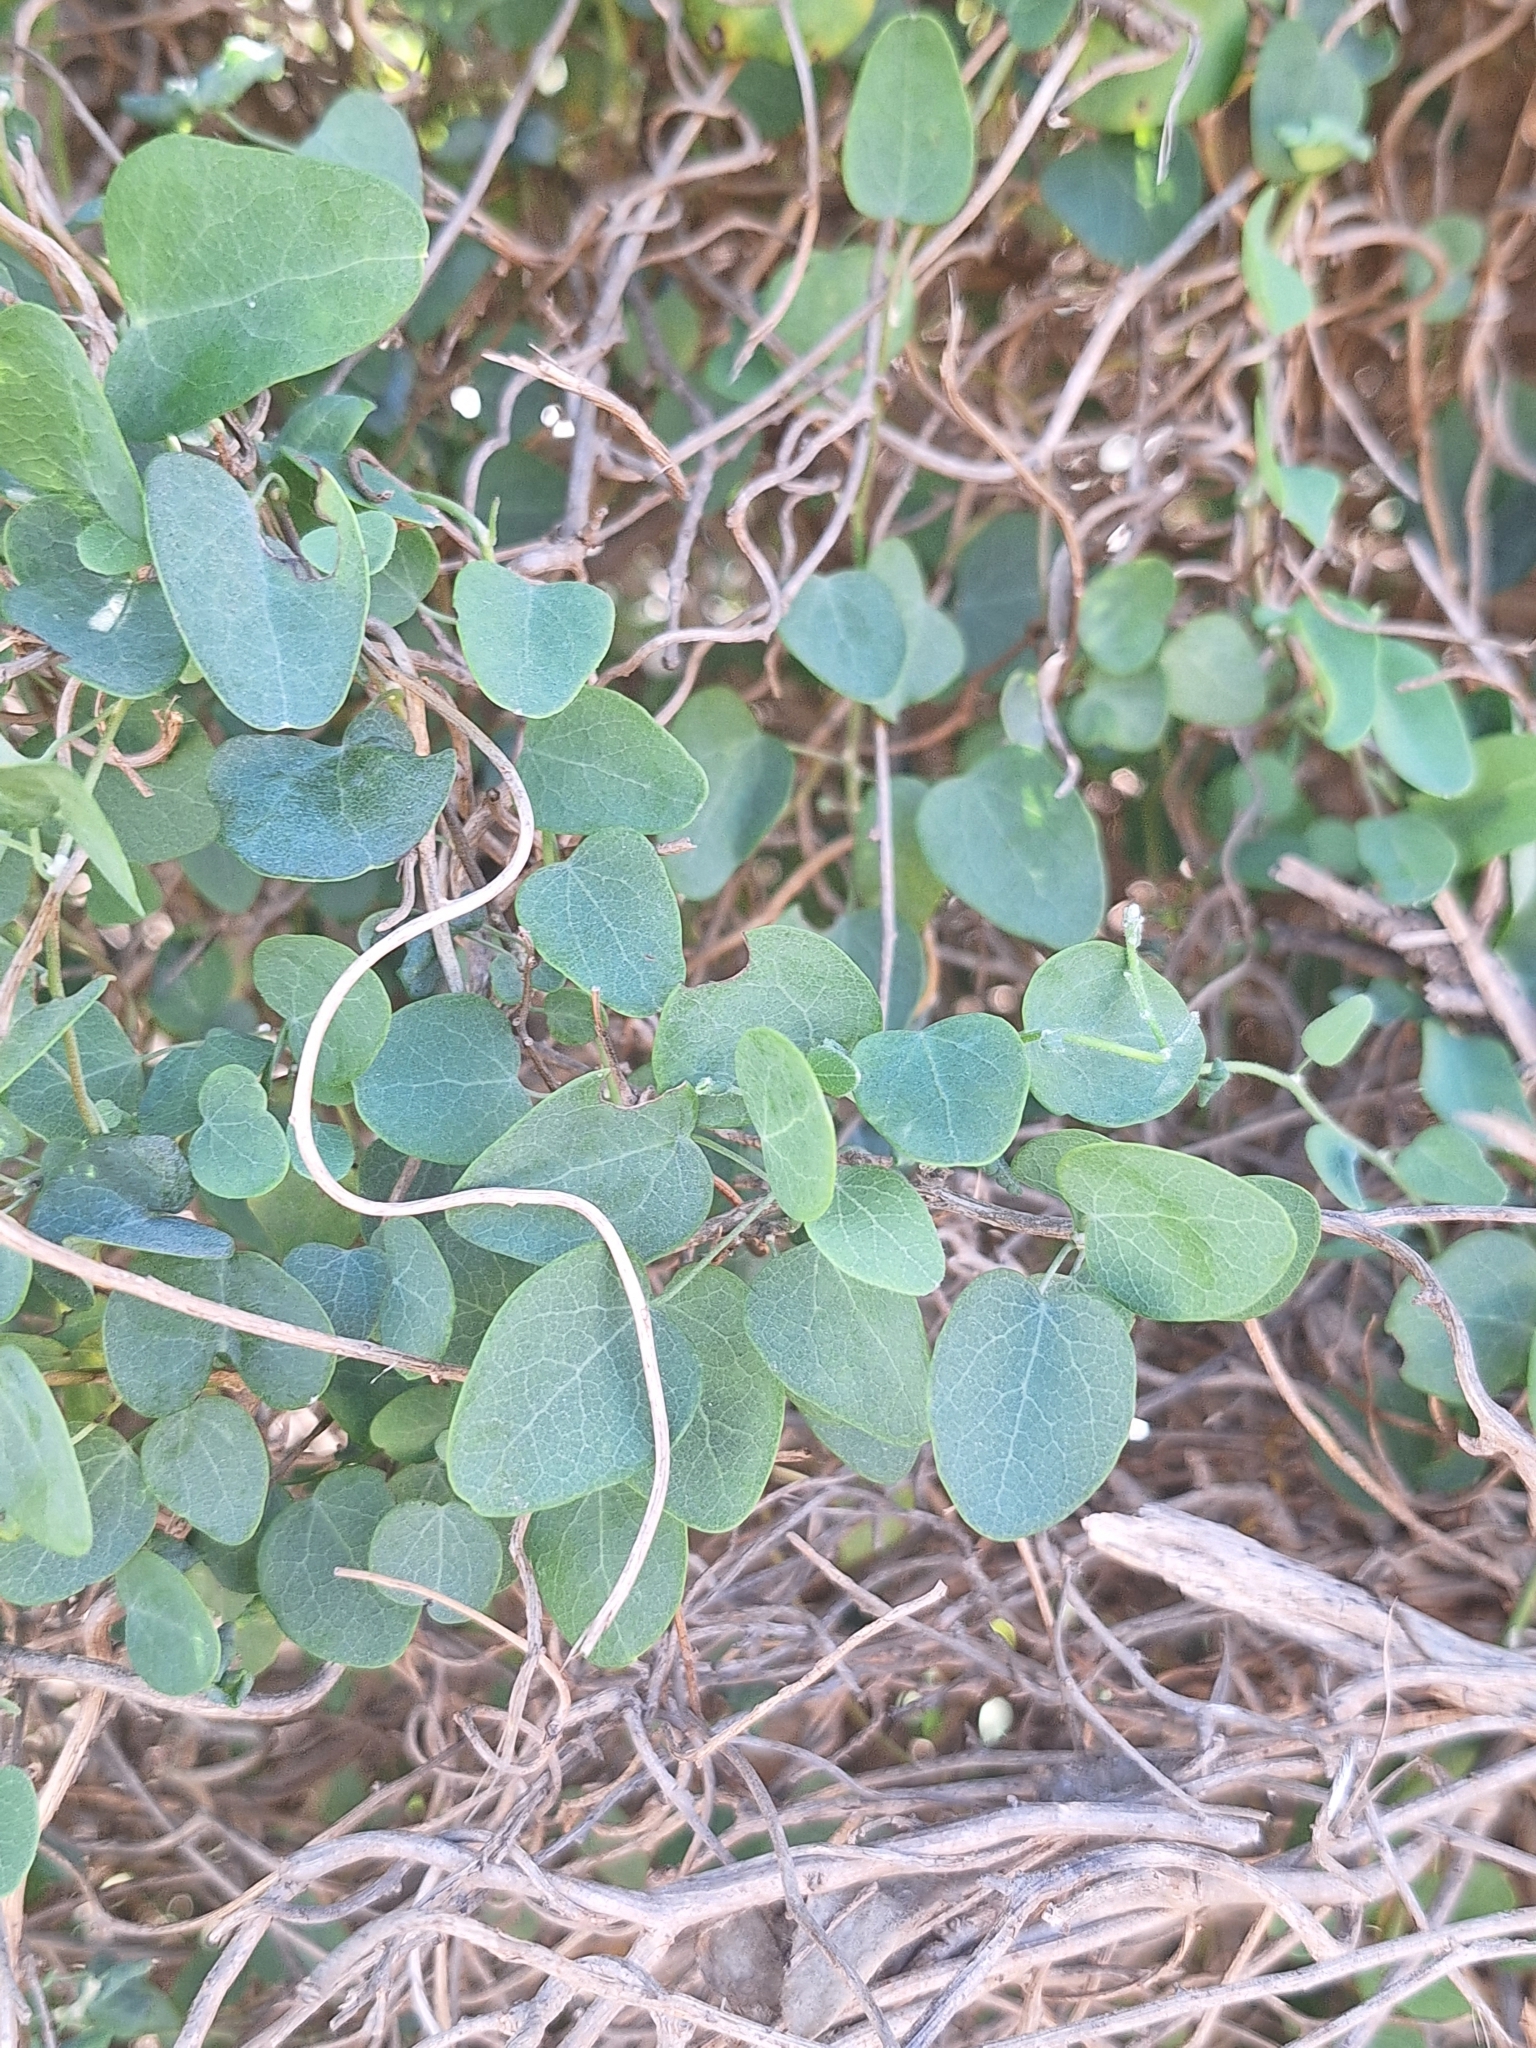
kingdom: Plantae
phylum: Tracheophyta
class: Magnoliopsida
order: Ranunculales
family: Menispermaceae
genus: Cissampelos
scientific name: Cissampelos capensis
